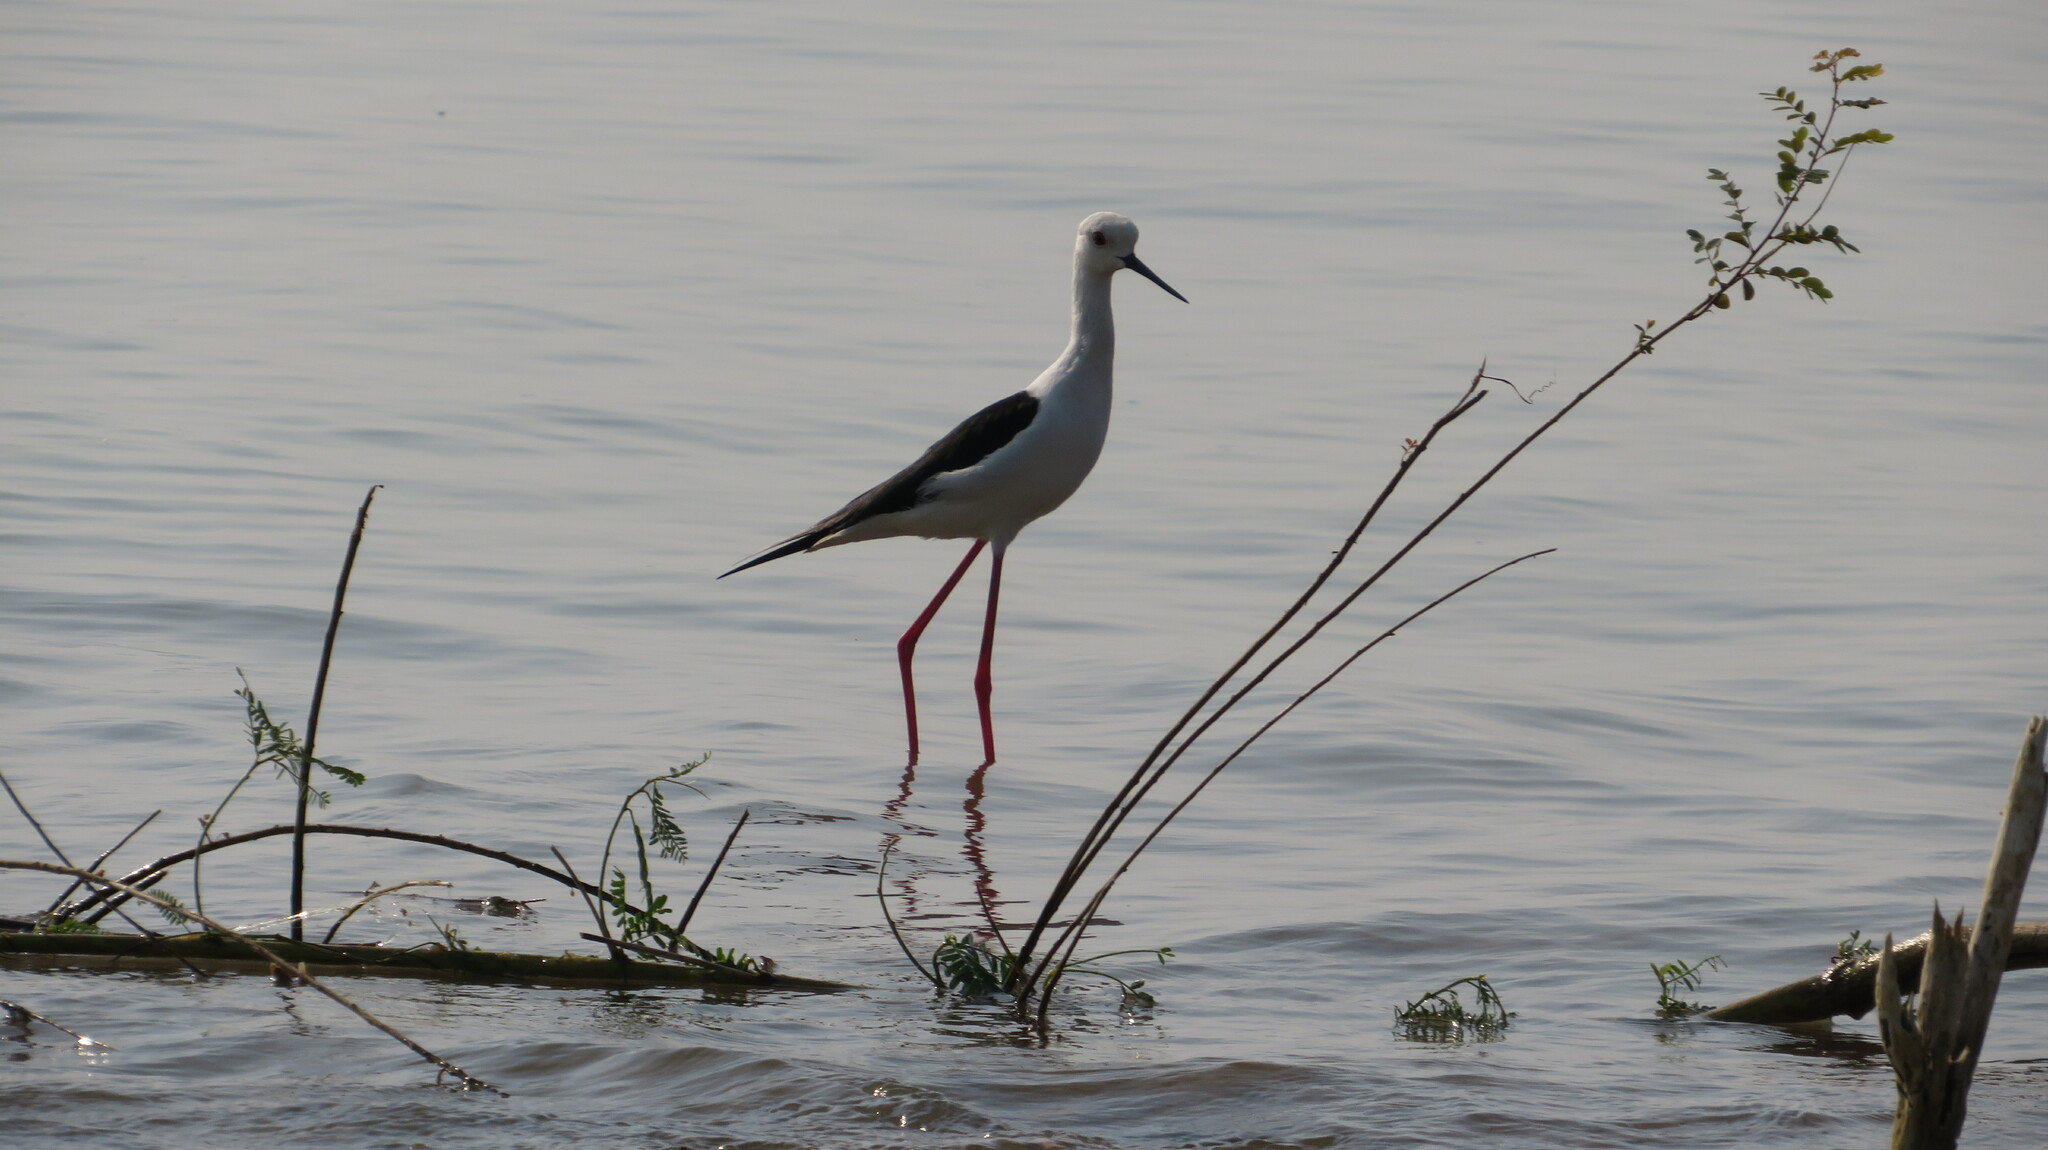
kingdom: Animalia
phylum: Chordata
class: Aves
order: Charadriiformes
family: Recurvirostridae
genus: Himantopus
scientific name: Himantopus himantopus
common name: Black-winged stilt
